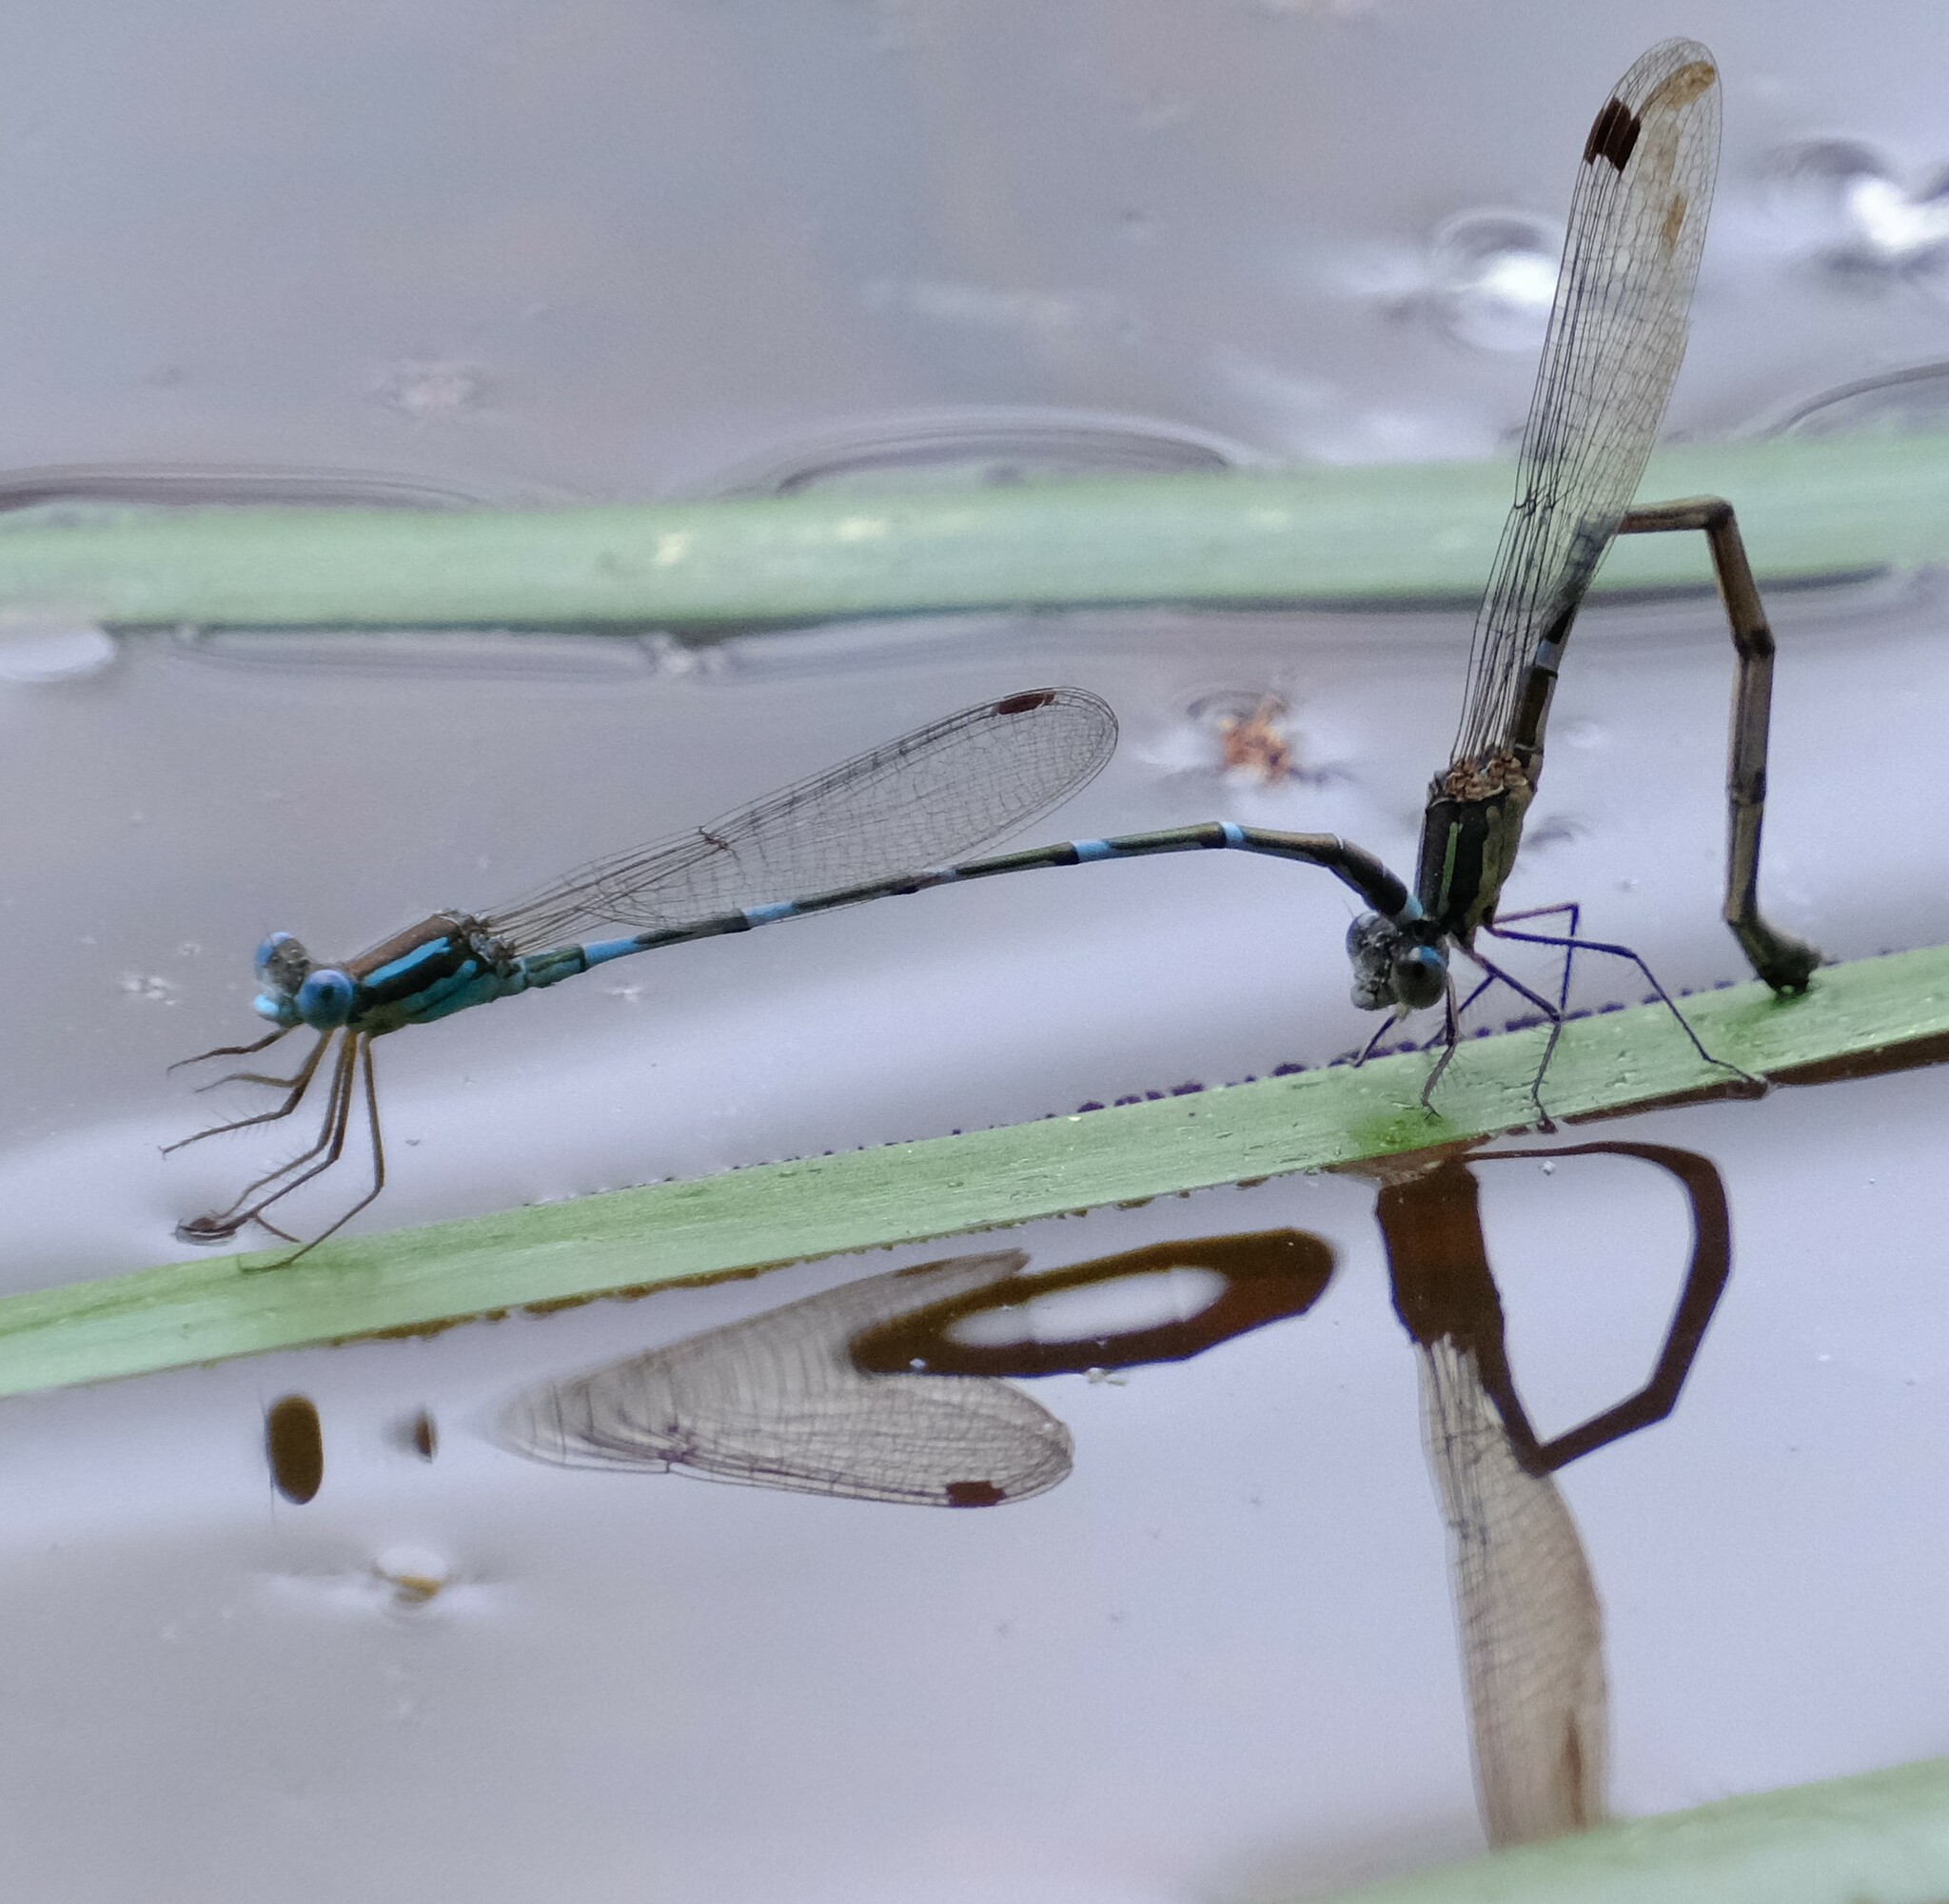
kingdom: Animalia
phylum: Arthropoda
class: Insecta
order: Odonata
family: Lestidae
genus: Austrolestes
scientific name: Austrolestes leda
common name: Wandering ringtail
